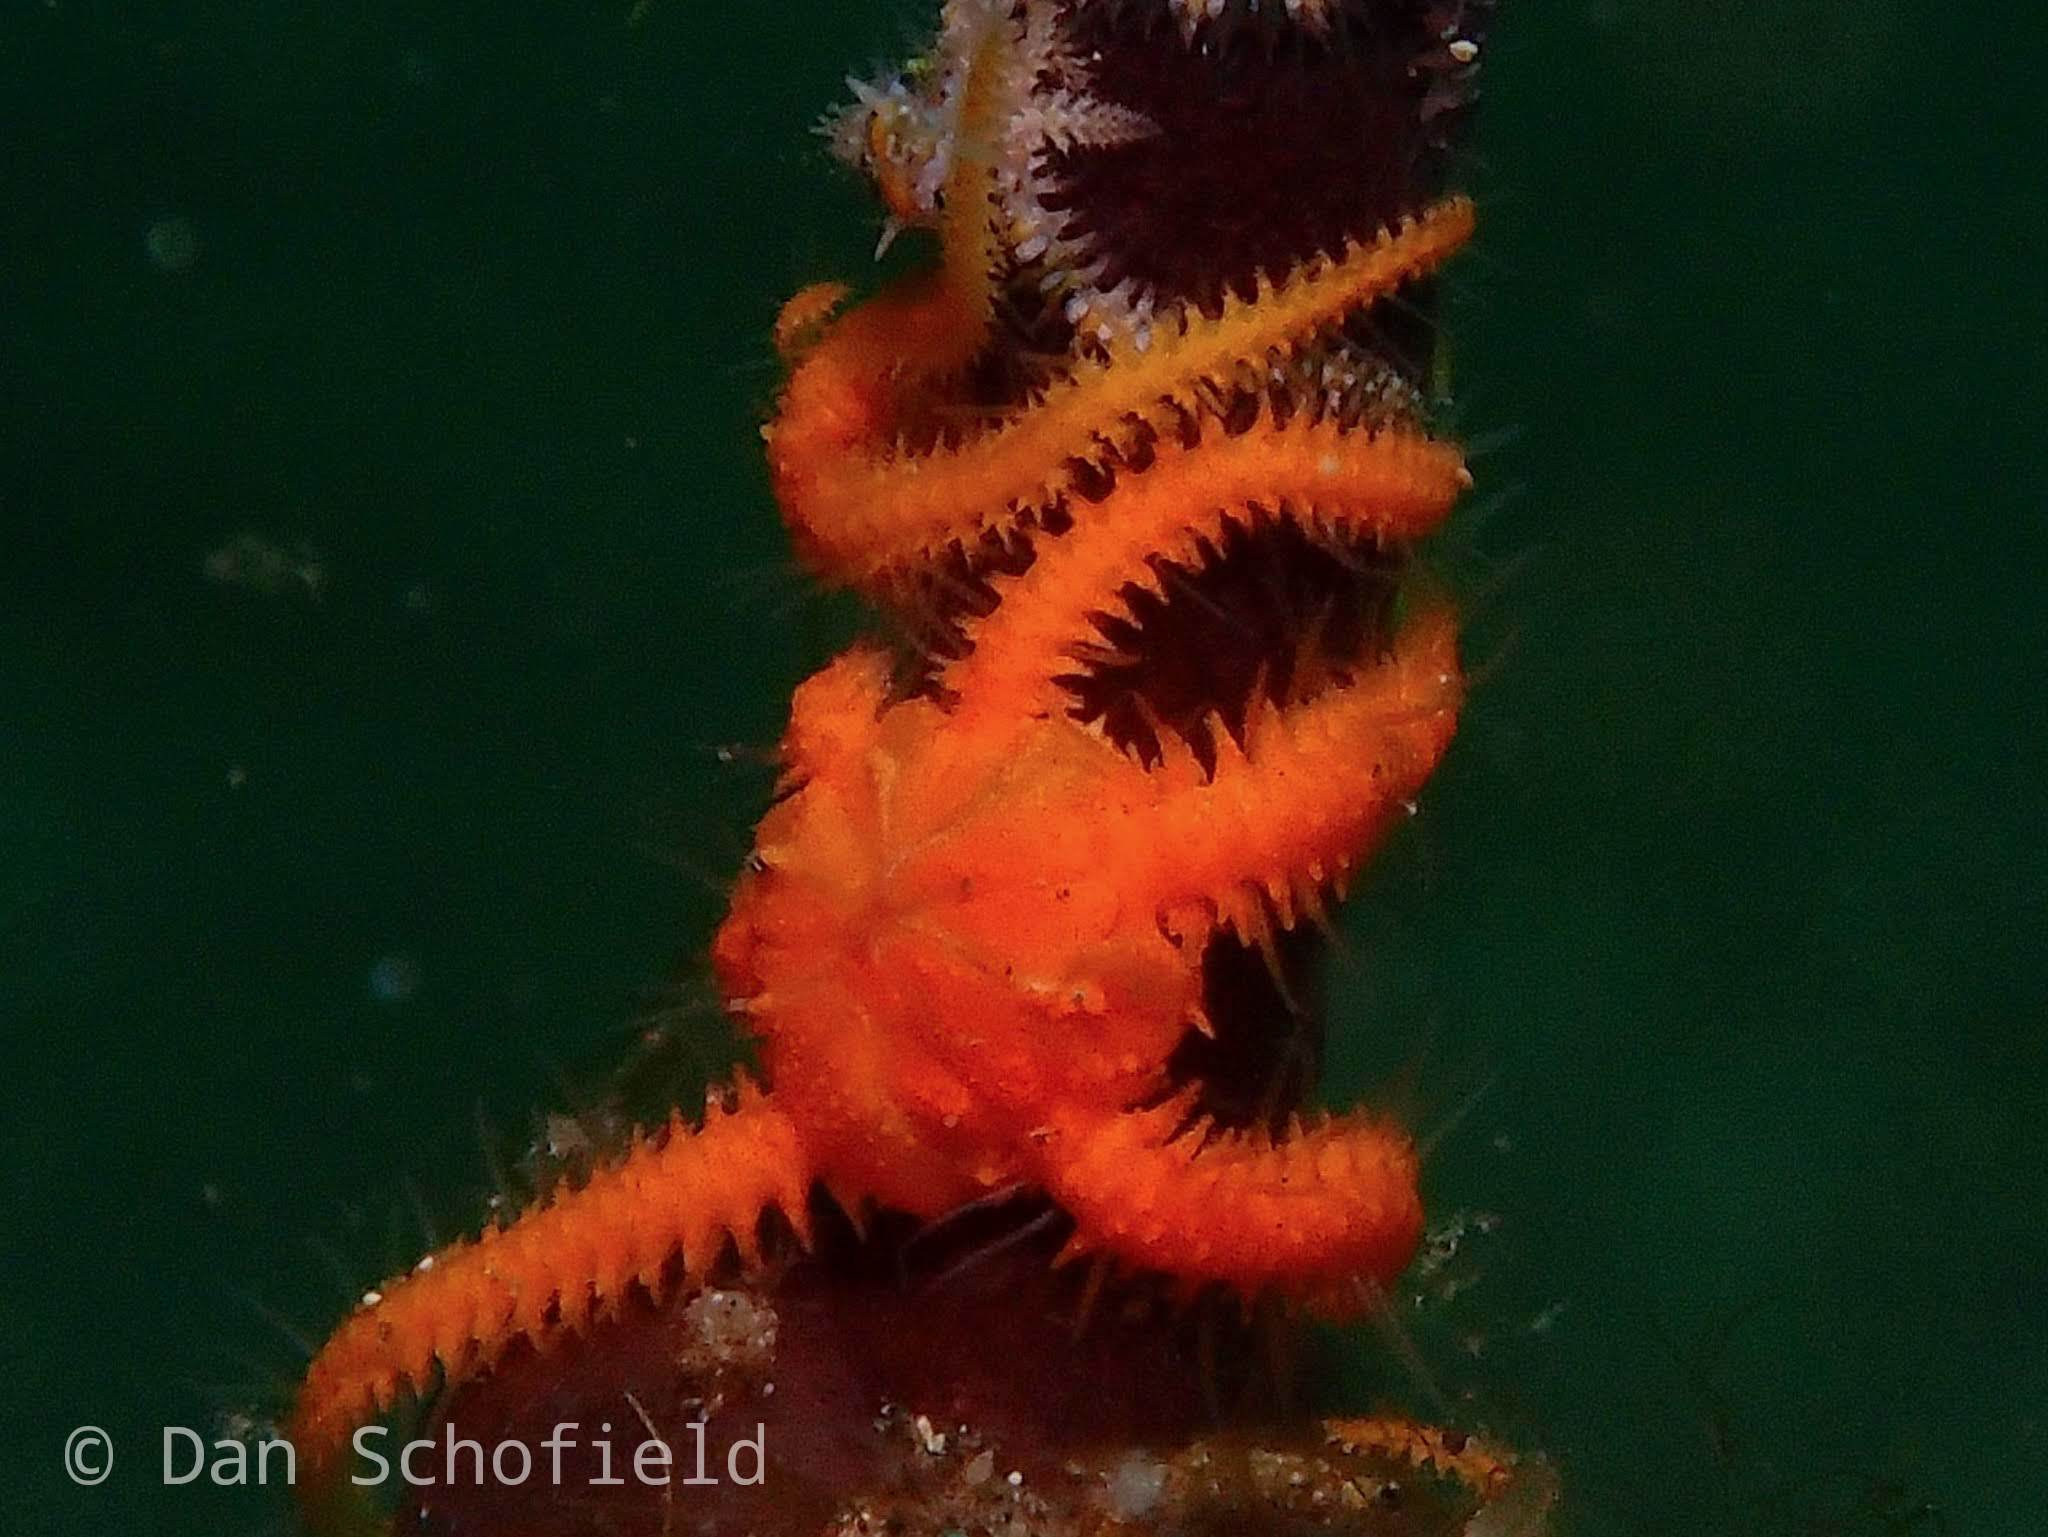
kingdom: Animalia
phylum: Echinodermata
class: Ophiuroidea
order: Amphilepidida
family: Ophiotrichidae
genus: Ophiothela
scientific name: Ophiothela mirabilis
